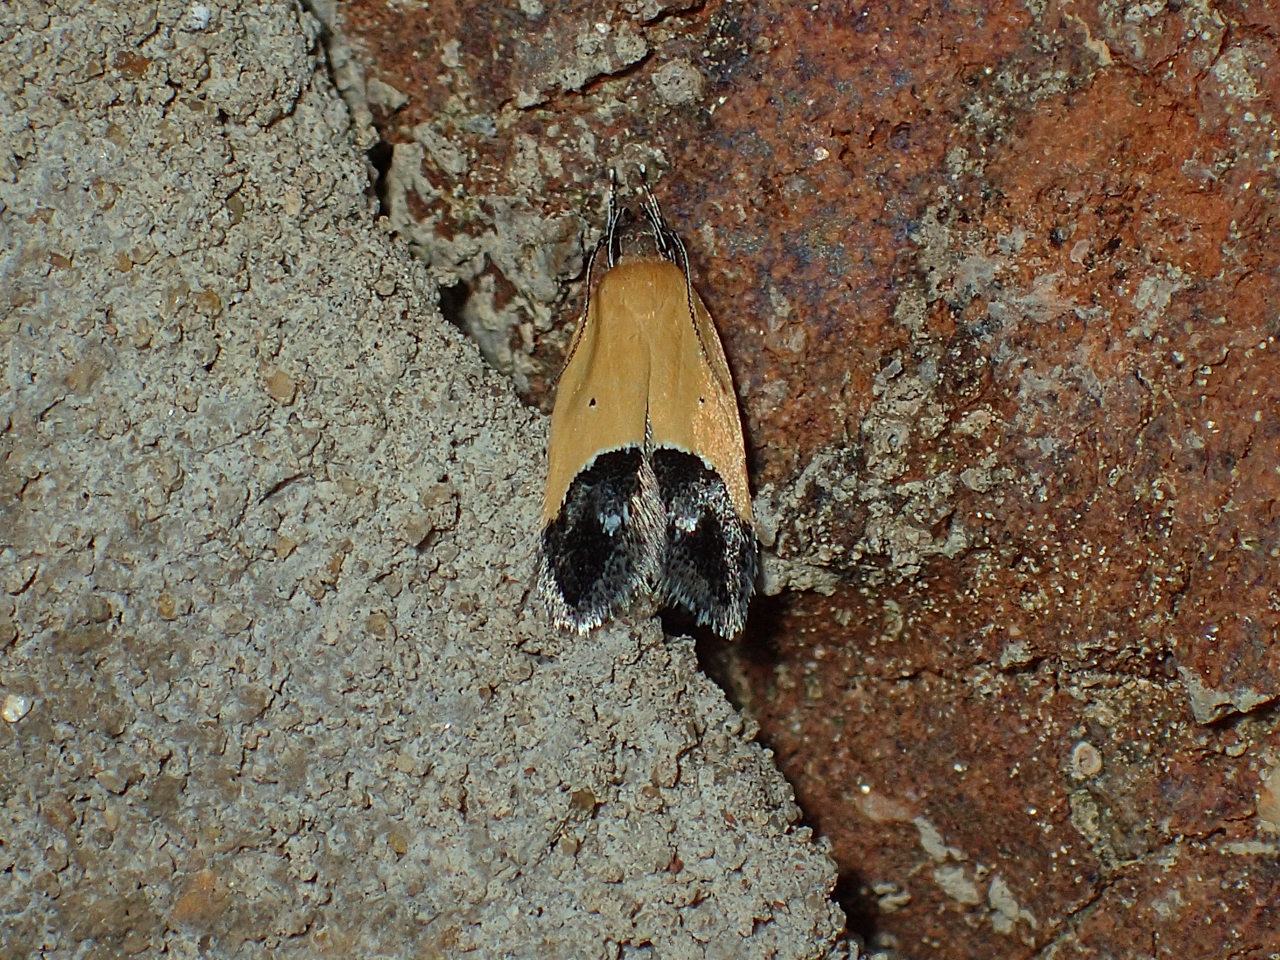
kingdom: Animalia
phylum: Arthropoda
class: Insecta
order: Lepidoptera
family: Momphidae
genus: Triclonella
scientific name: Triclonella pergandeella
